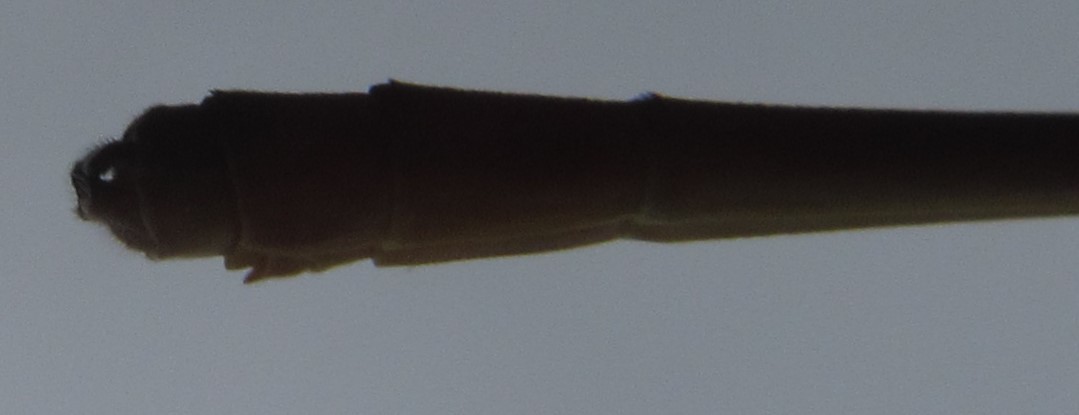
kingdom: Animalia
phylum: Arthropoda
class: Insecta
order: Odonata
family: Coenagrionidae
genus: Ceriagrion
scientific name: Ceriagrion suave
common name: Plain waxtail
